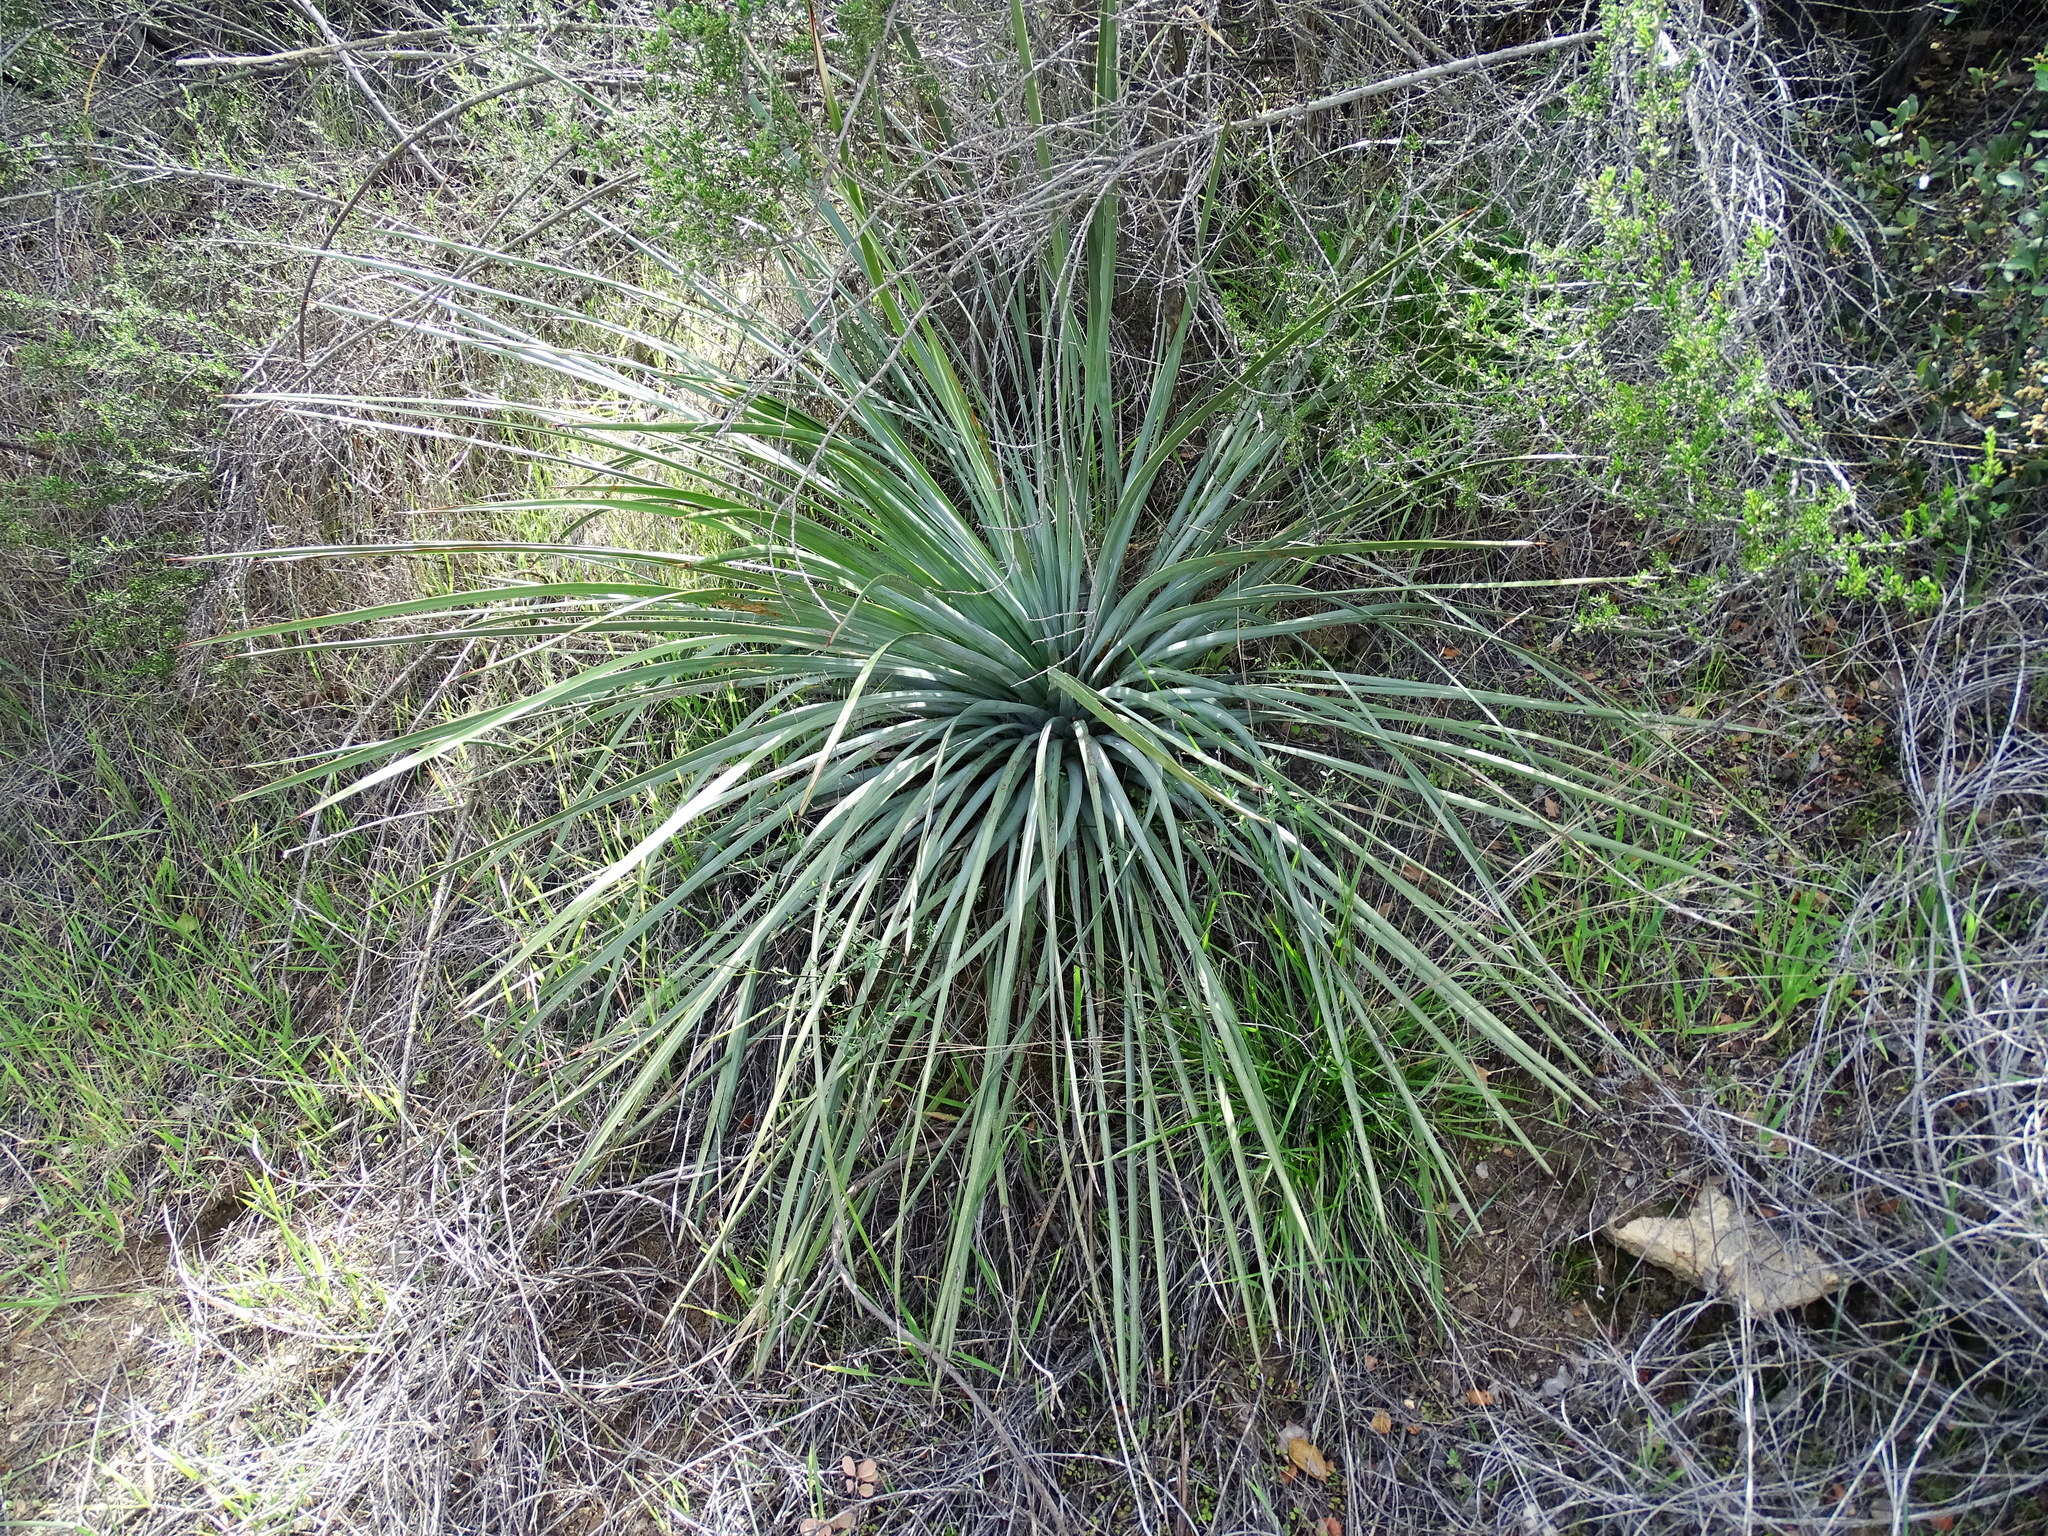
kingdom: Plantae
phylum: Tracheophyta
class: Liliopsida
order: Asparagales
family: Asparagaceae
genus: Hesperoyucca
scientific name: Hesperoyucca whipplei
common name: Our lord's-candle
